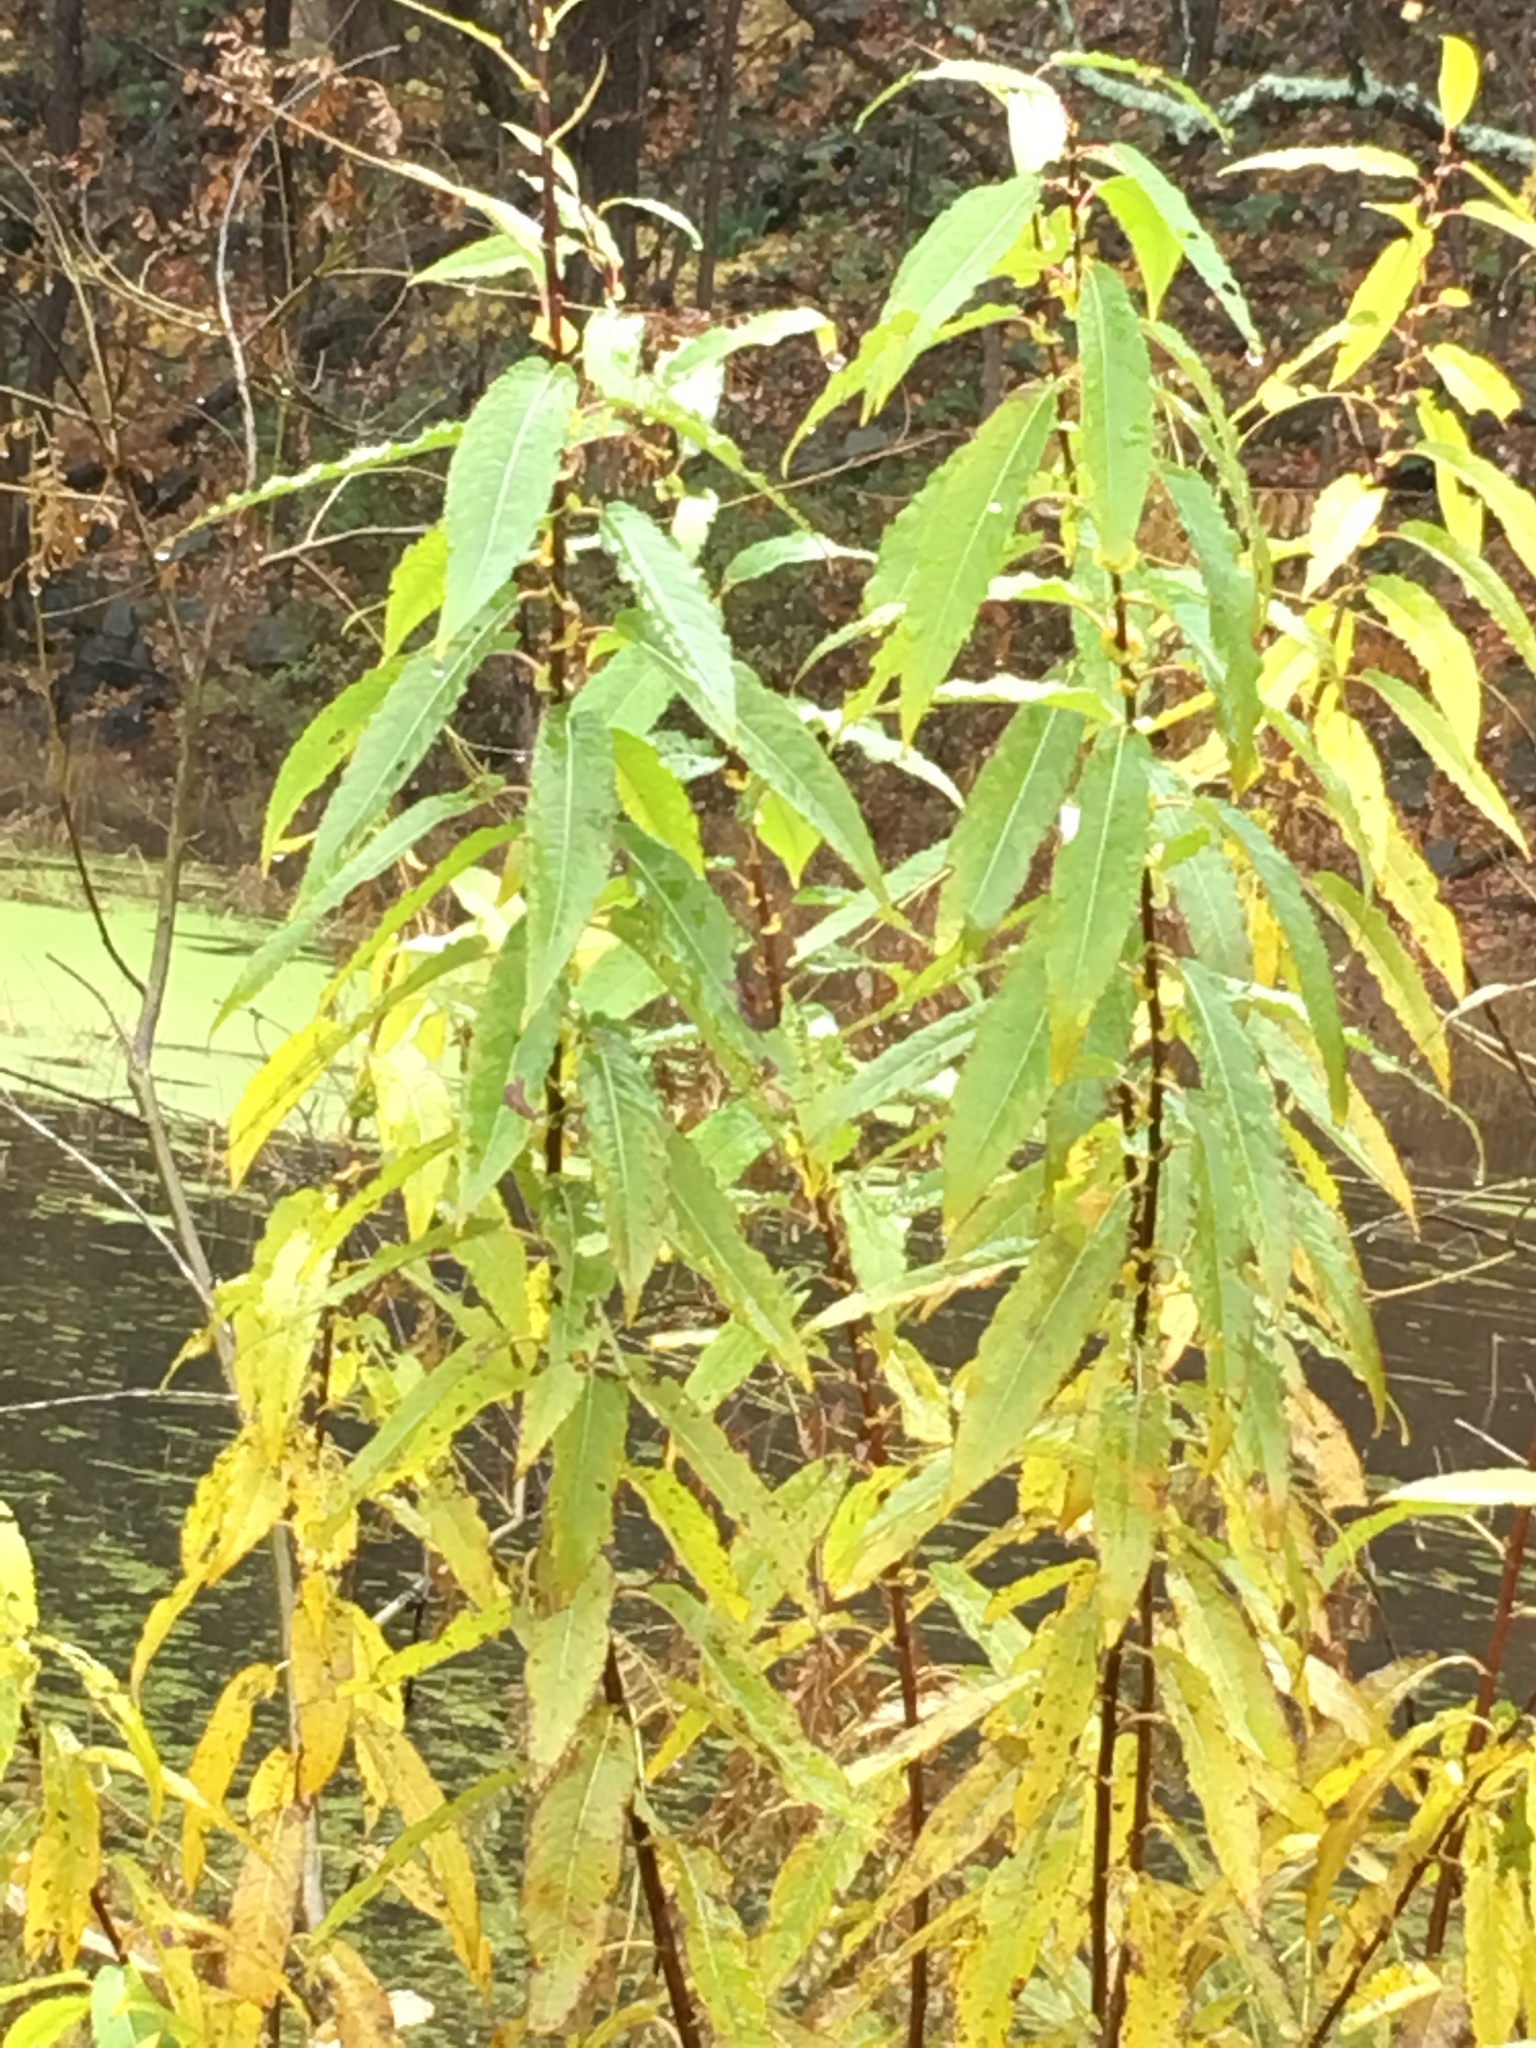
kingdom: Plantae
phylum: Tracheophyta
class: Magnoliopsida
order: Malpighiales
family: Salicaceae
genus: Salix
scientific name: Salix eriocephala
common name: Heart-leaved willow
